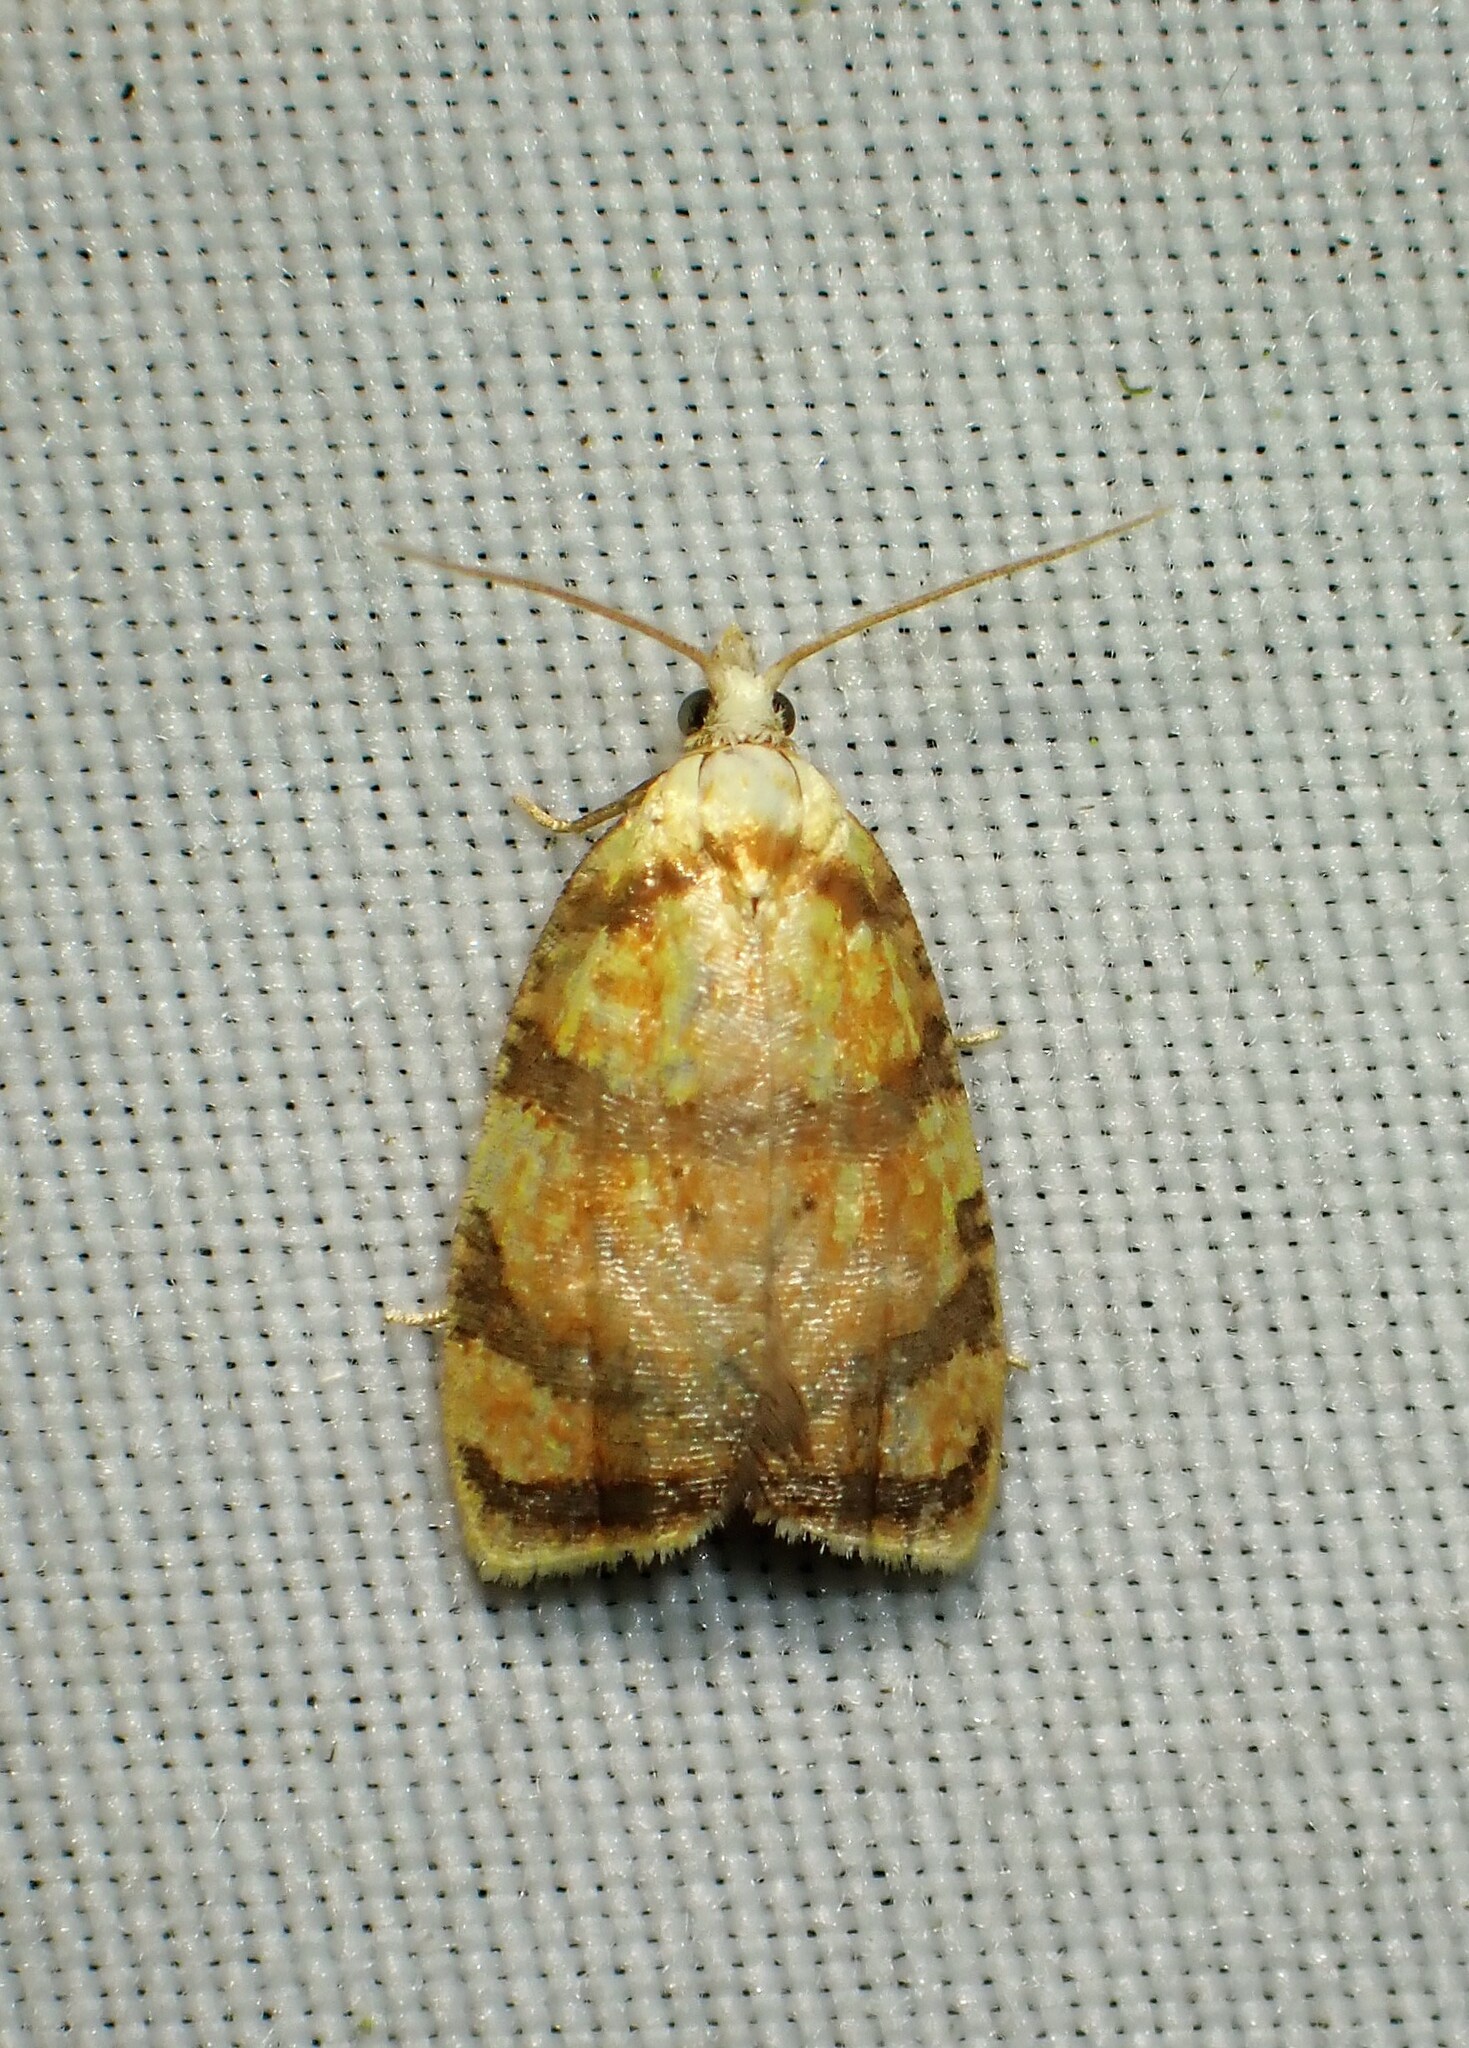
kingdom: Animalia
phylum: Arthropoda
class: Insecta
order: Lepidoptera
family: Tortricidae
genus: Acleris
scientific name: Acleris albicomana
